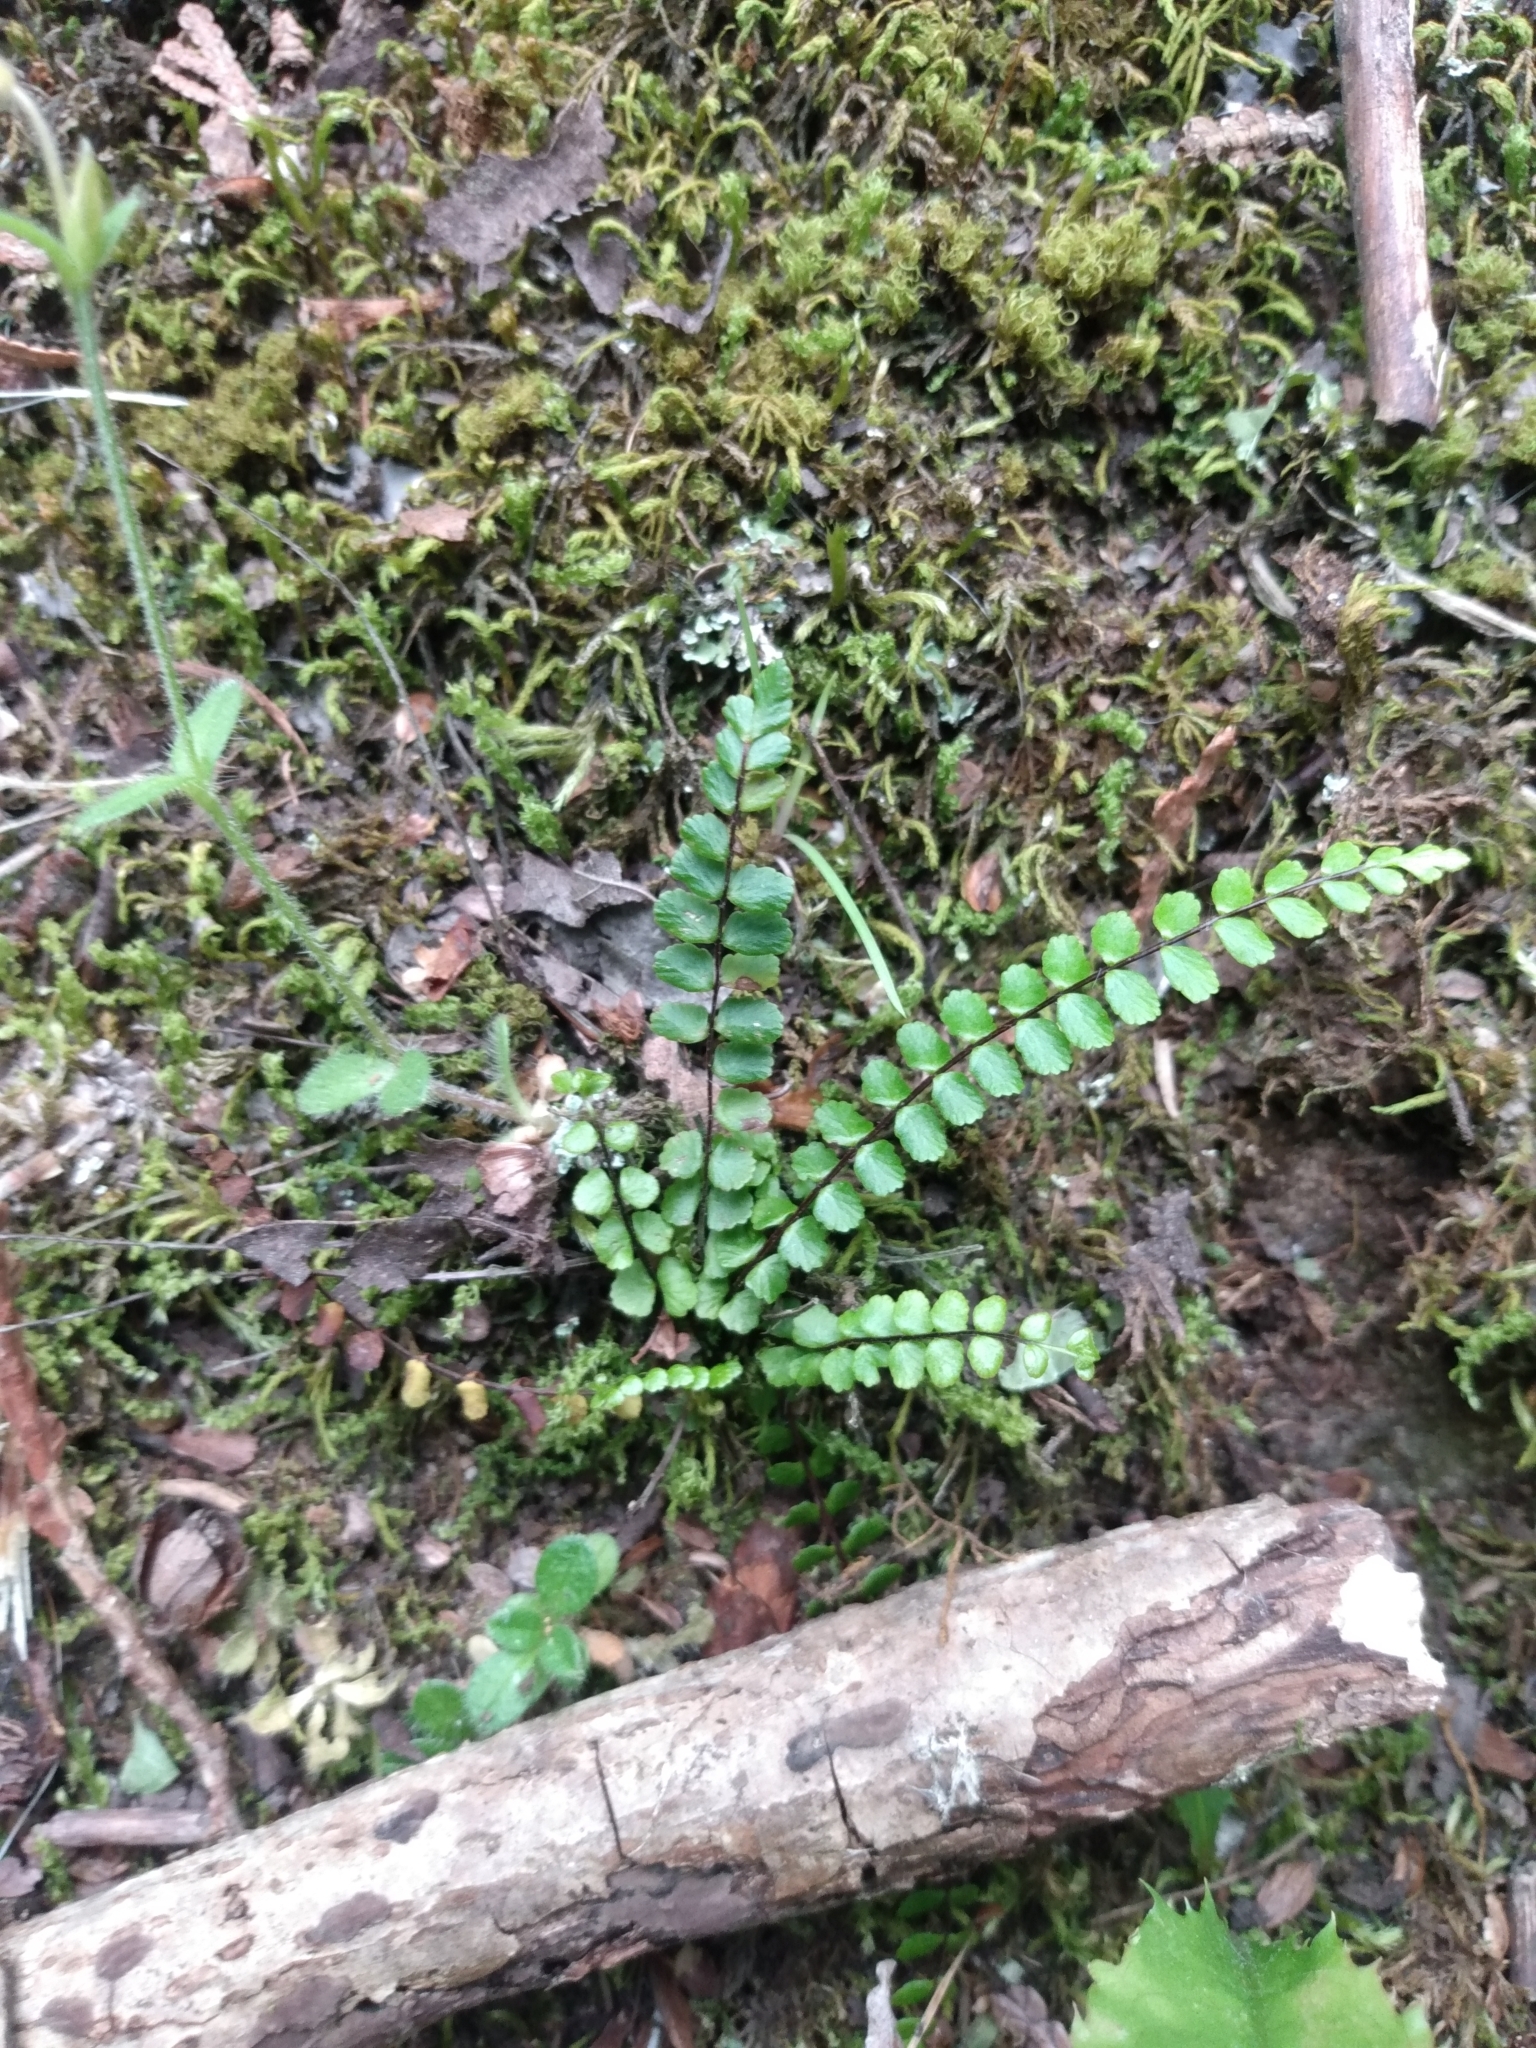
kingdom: Plantae
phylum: Tracheophyta
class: Polypodiopsida
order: Polypodiales
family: Aspleniaceae
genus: Asplenium
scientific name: Asplenium trichomanes
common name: Maidenhair spleenwort
